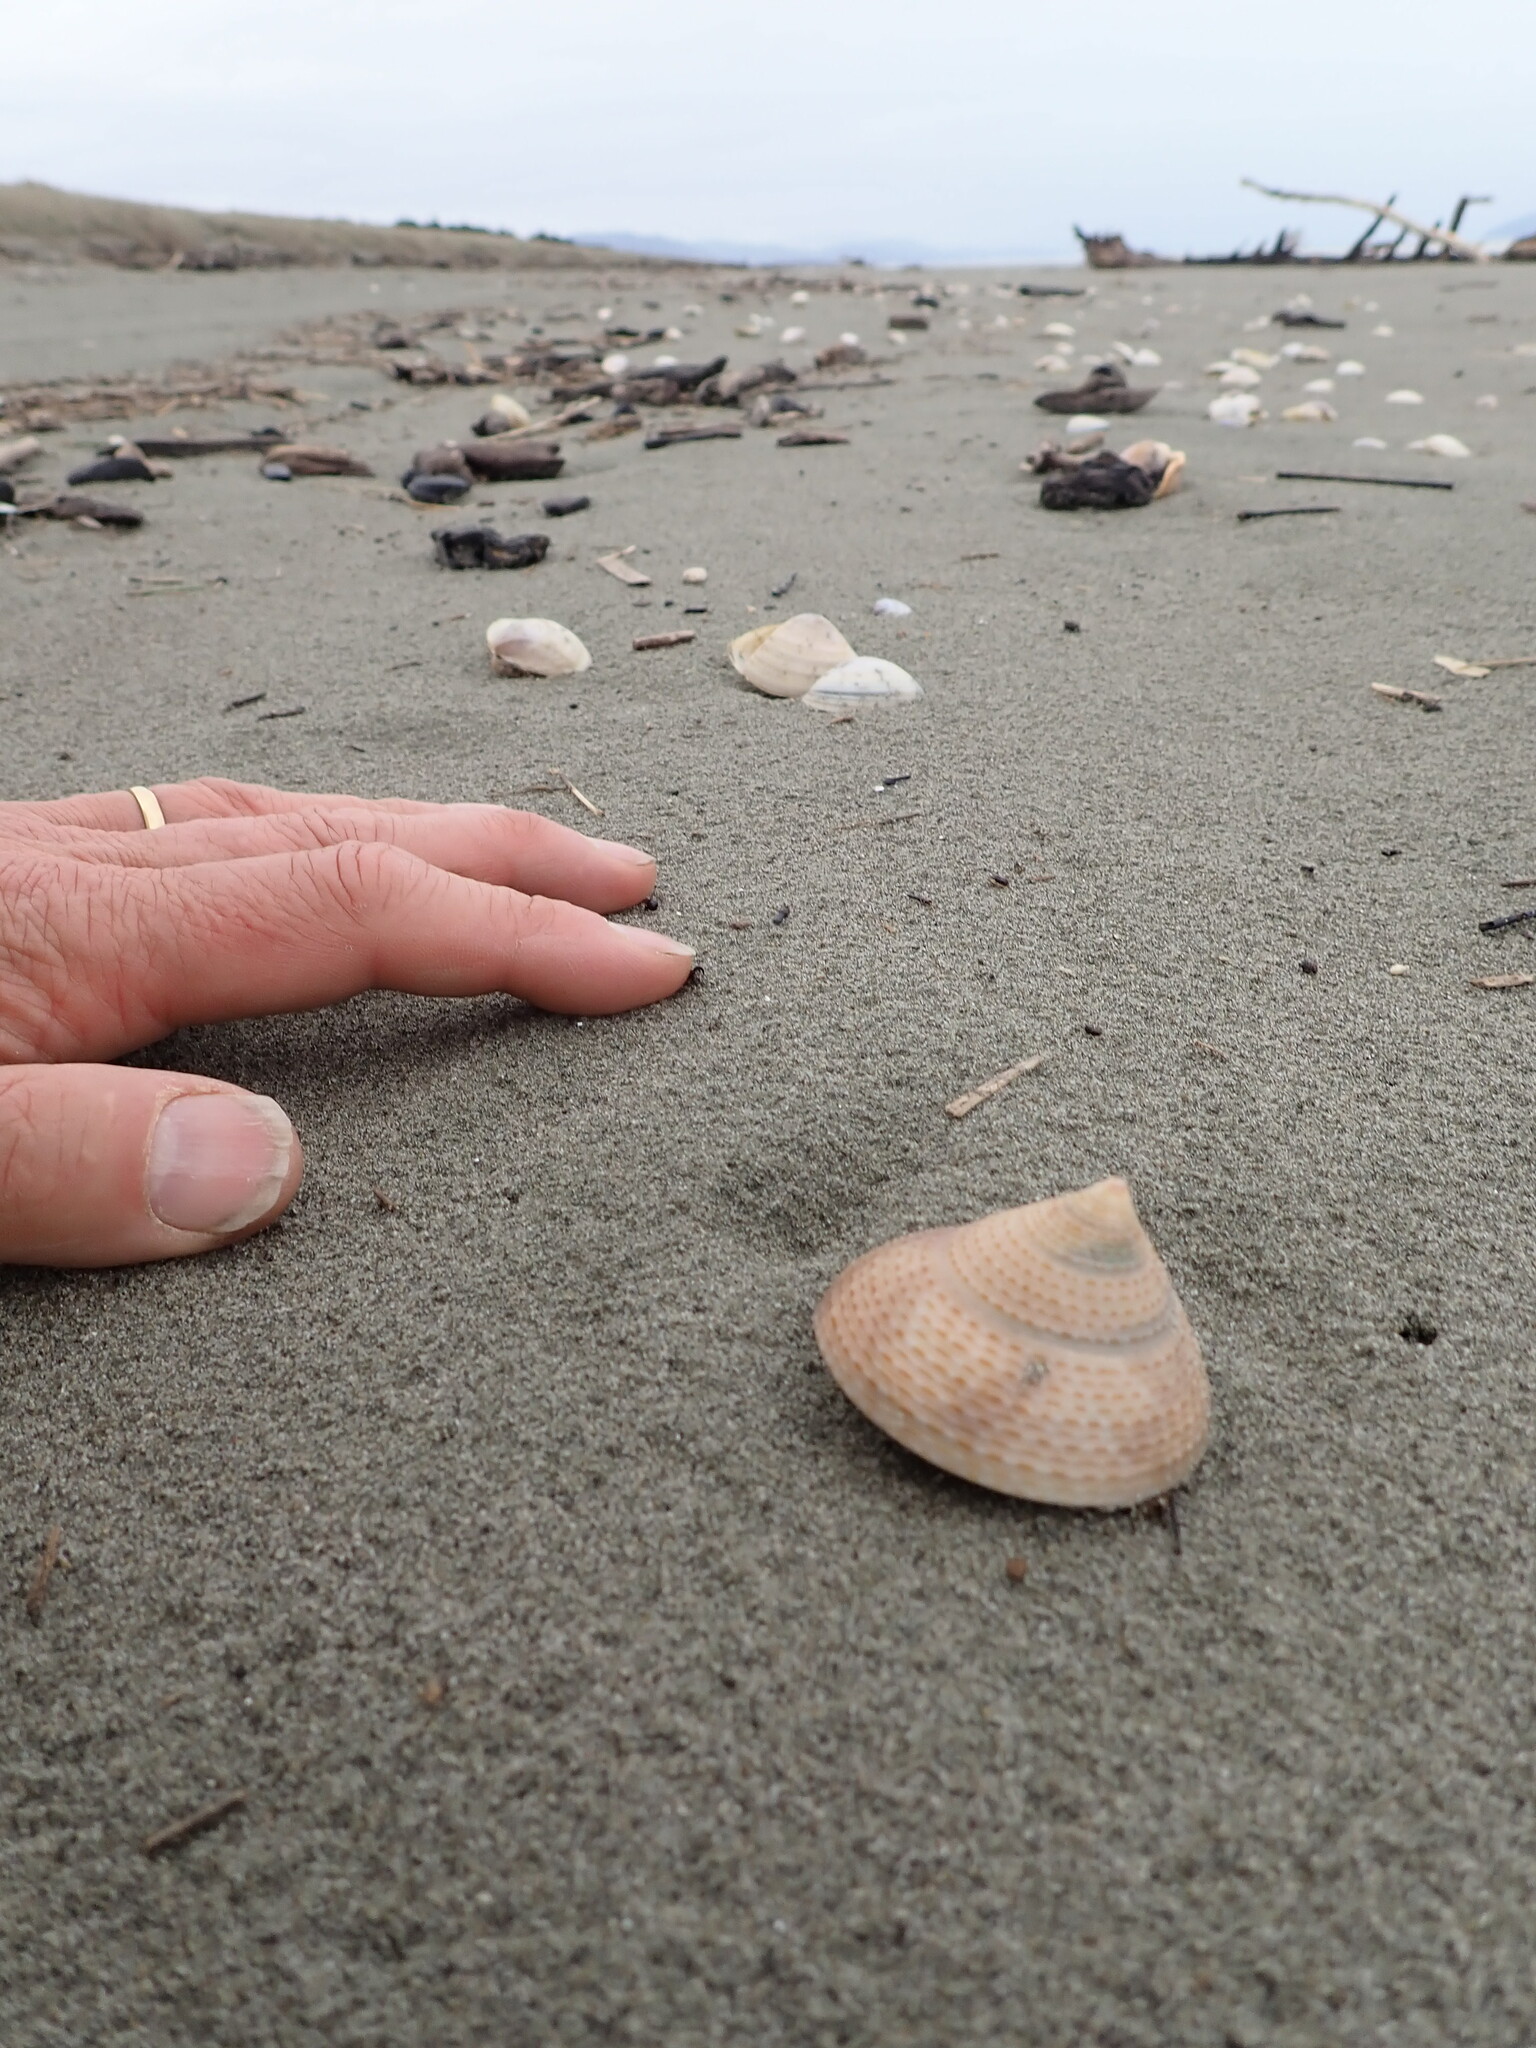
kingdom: Animalia
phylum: Mollusca
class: Gastropoda
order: Trochida
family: Calliostomatidae
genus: Maurea
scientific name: Maurea selecta
